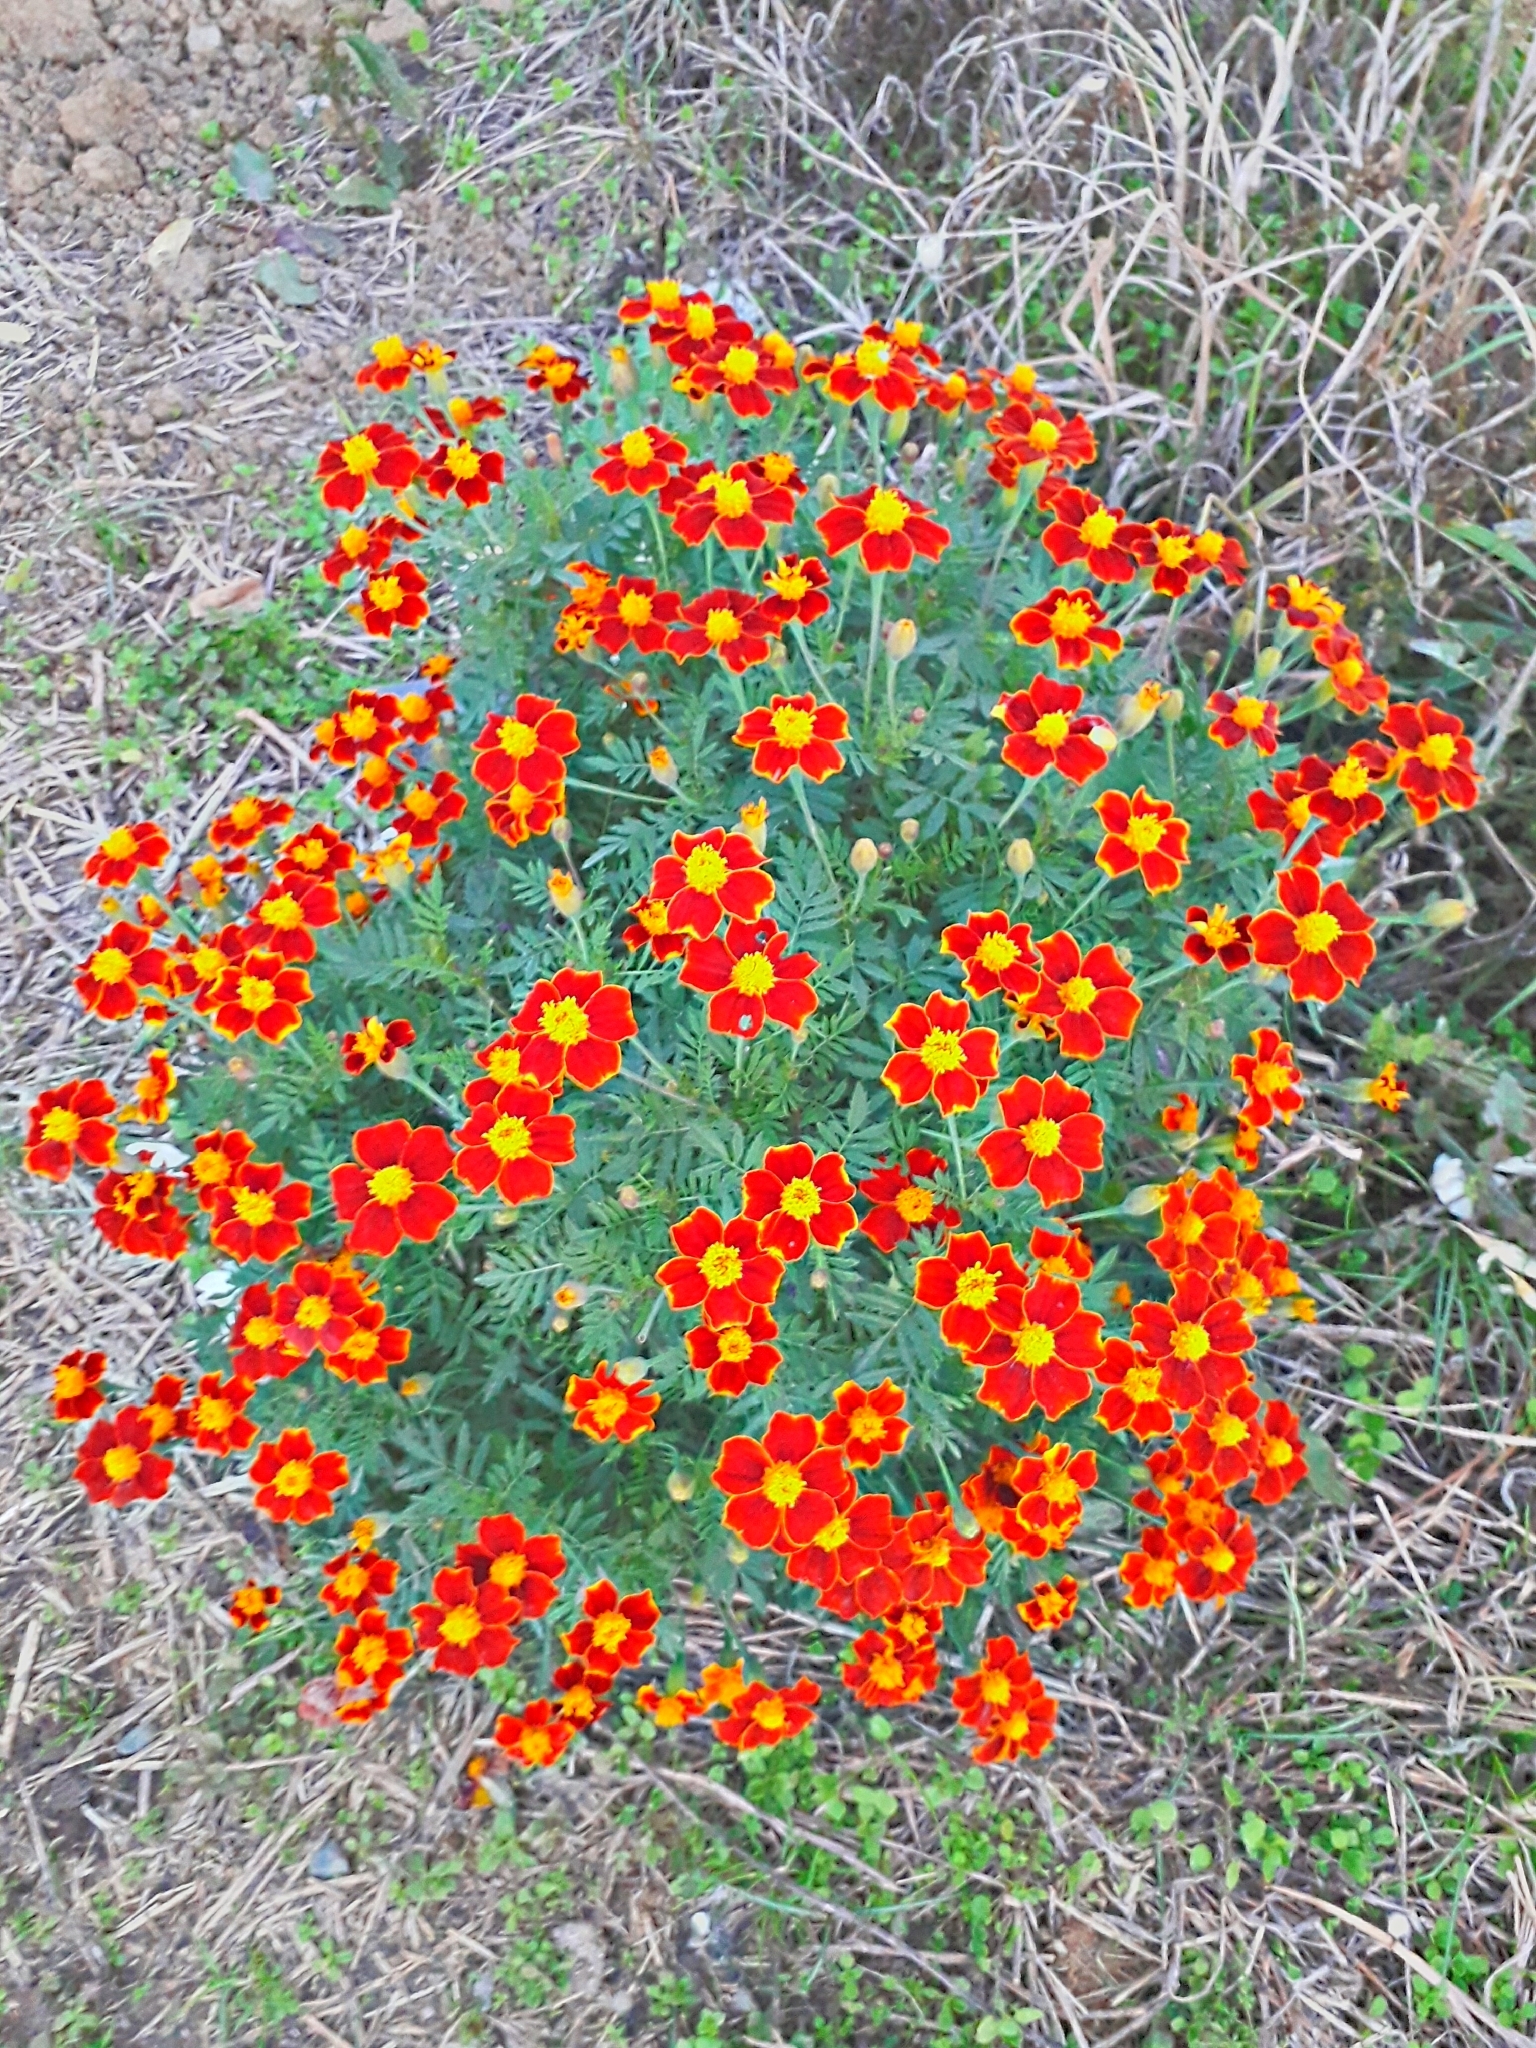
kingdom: Plantae
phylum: Tracheophyta
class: Magnoliopsida
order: Asterales
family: Asteraceae
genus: Tagetes
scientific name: Tagetes erecta
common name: African marigold
